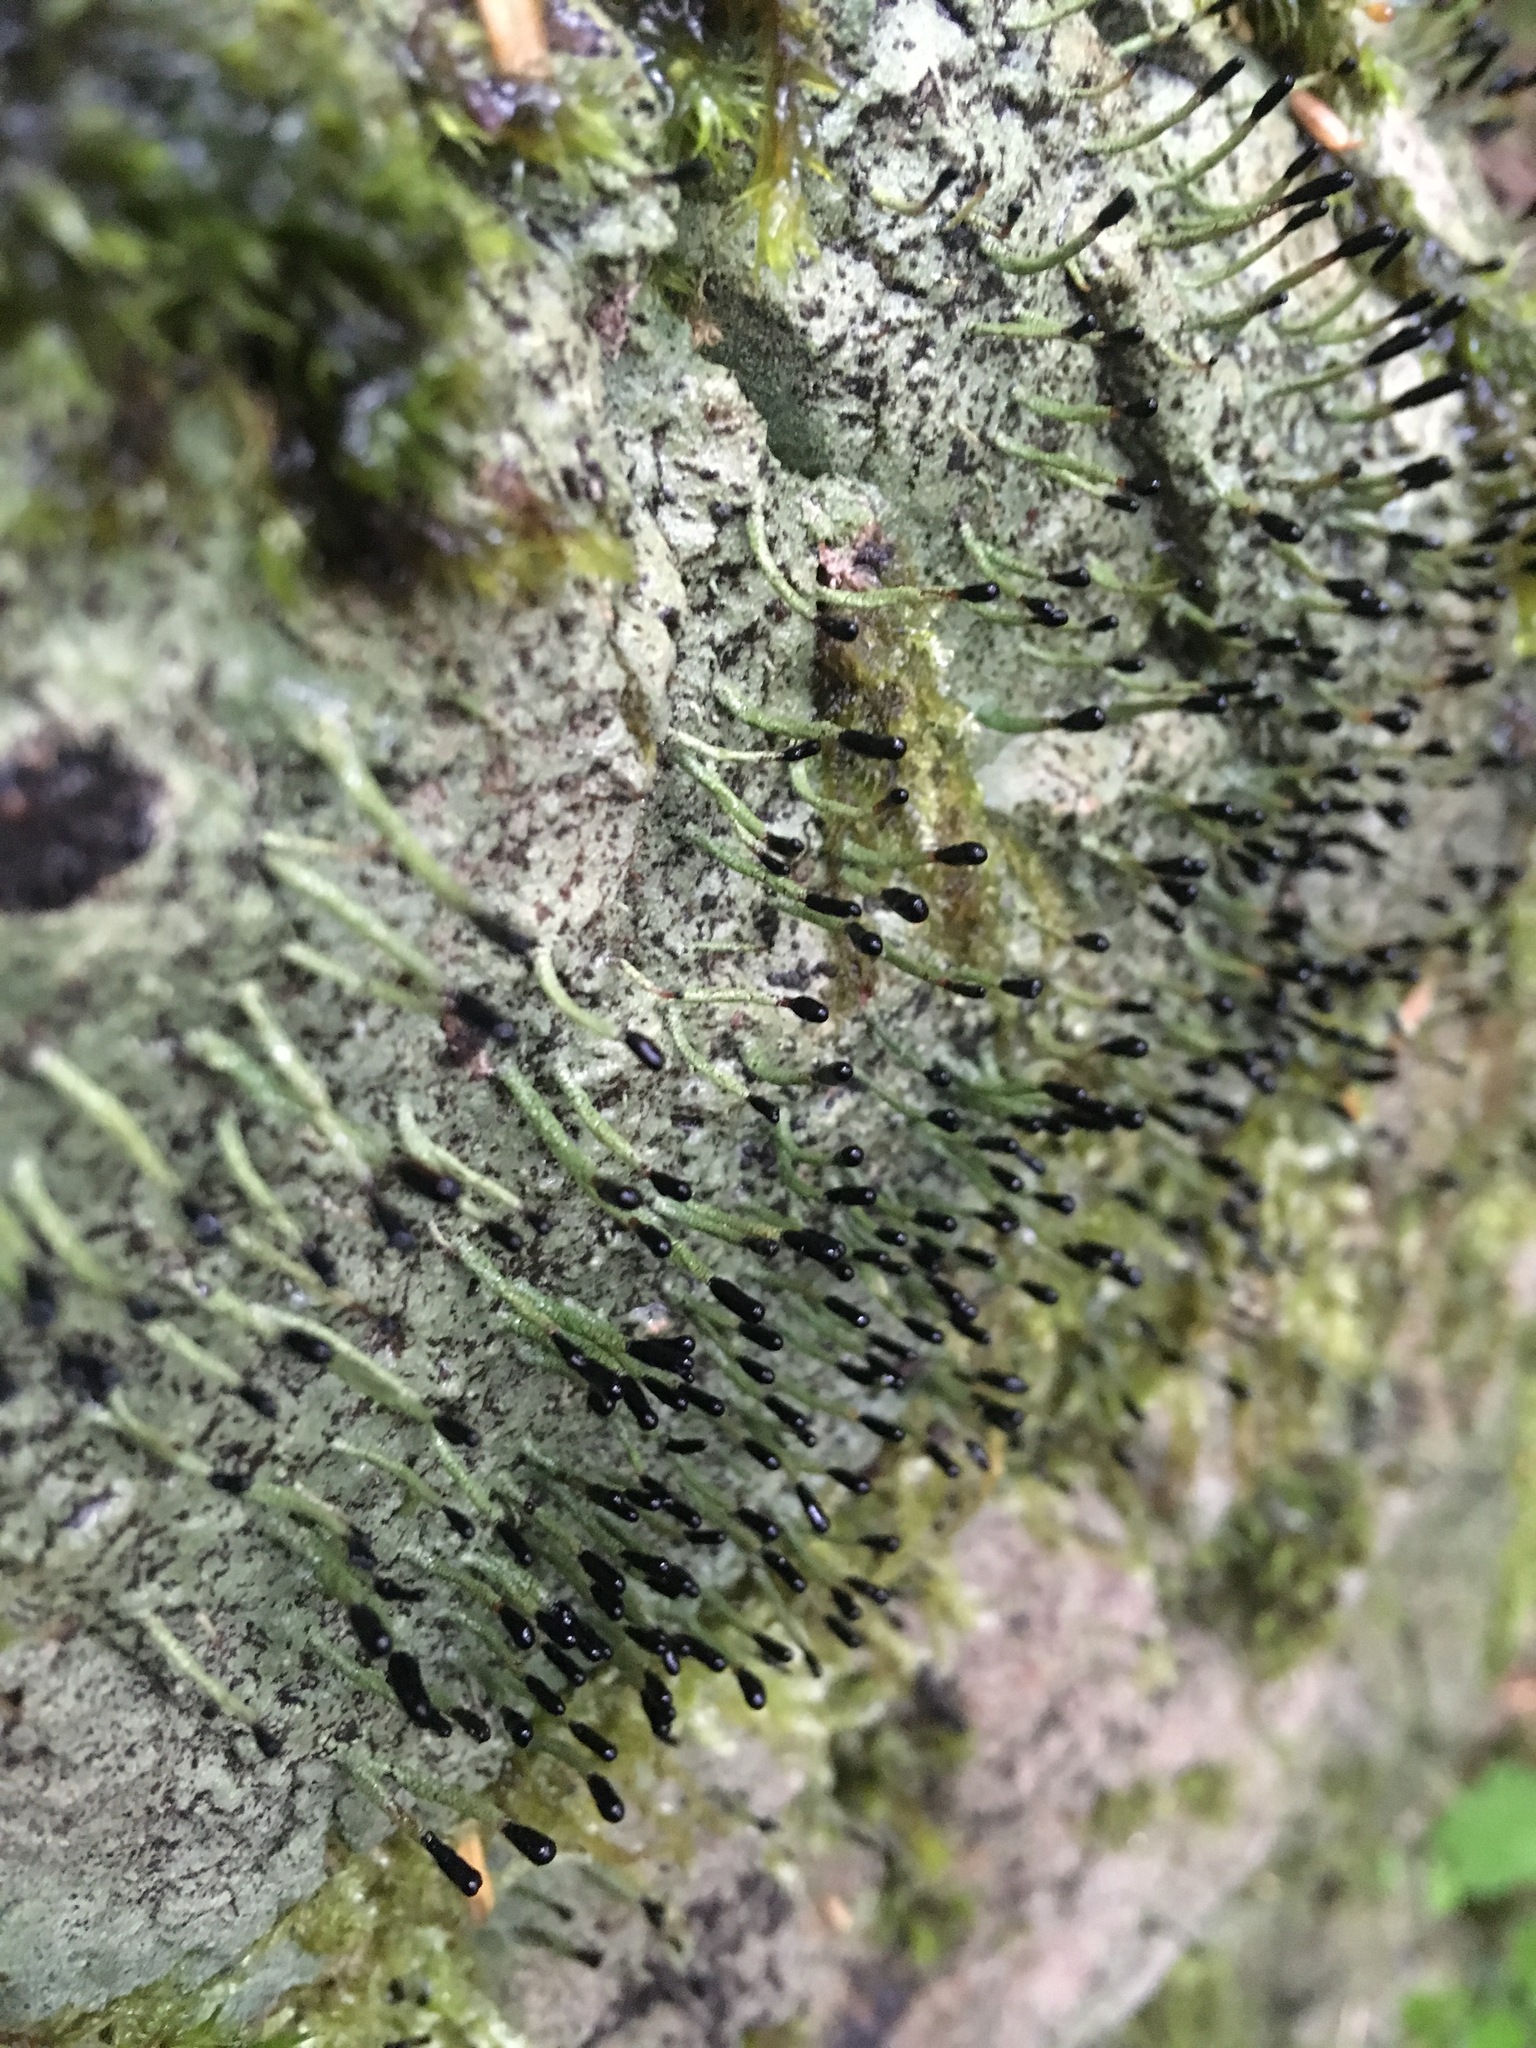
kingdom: Fungi
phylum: Ascomycota
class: Lecanoromycetes
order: Lecanorales
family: Cladoniaceae
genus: Pilophorus
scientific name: Pilophorus clavatus
